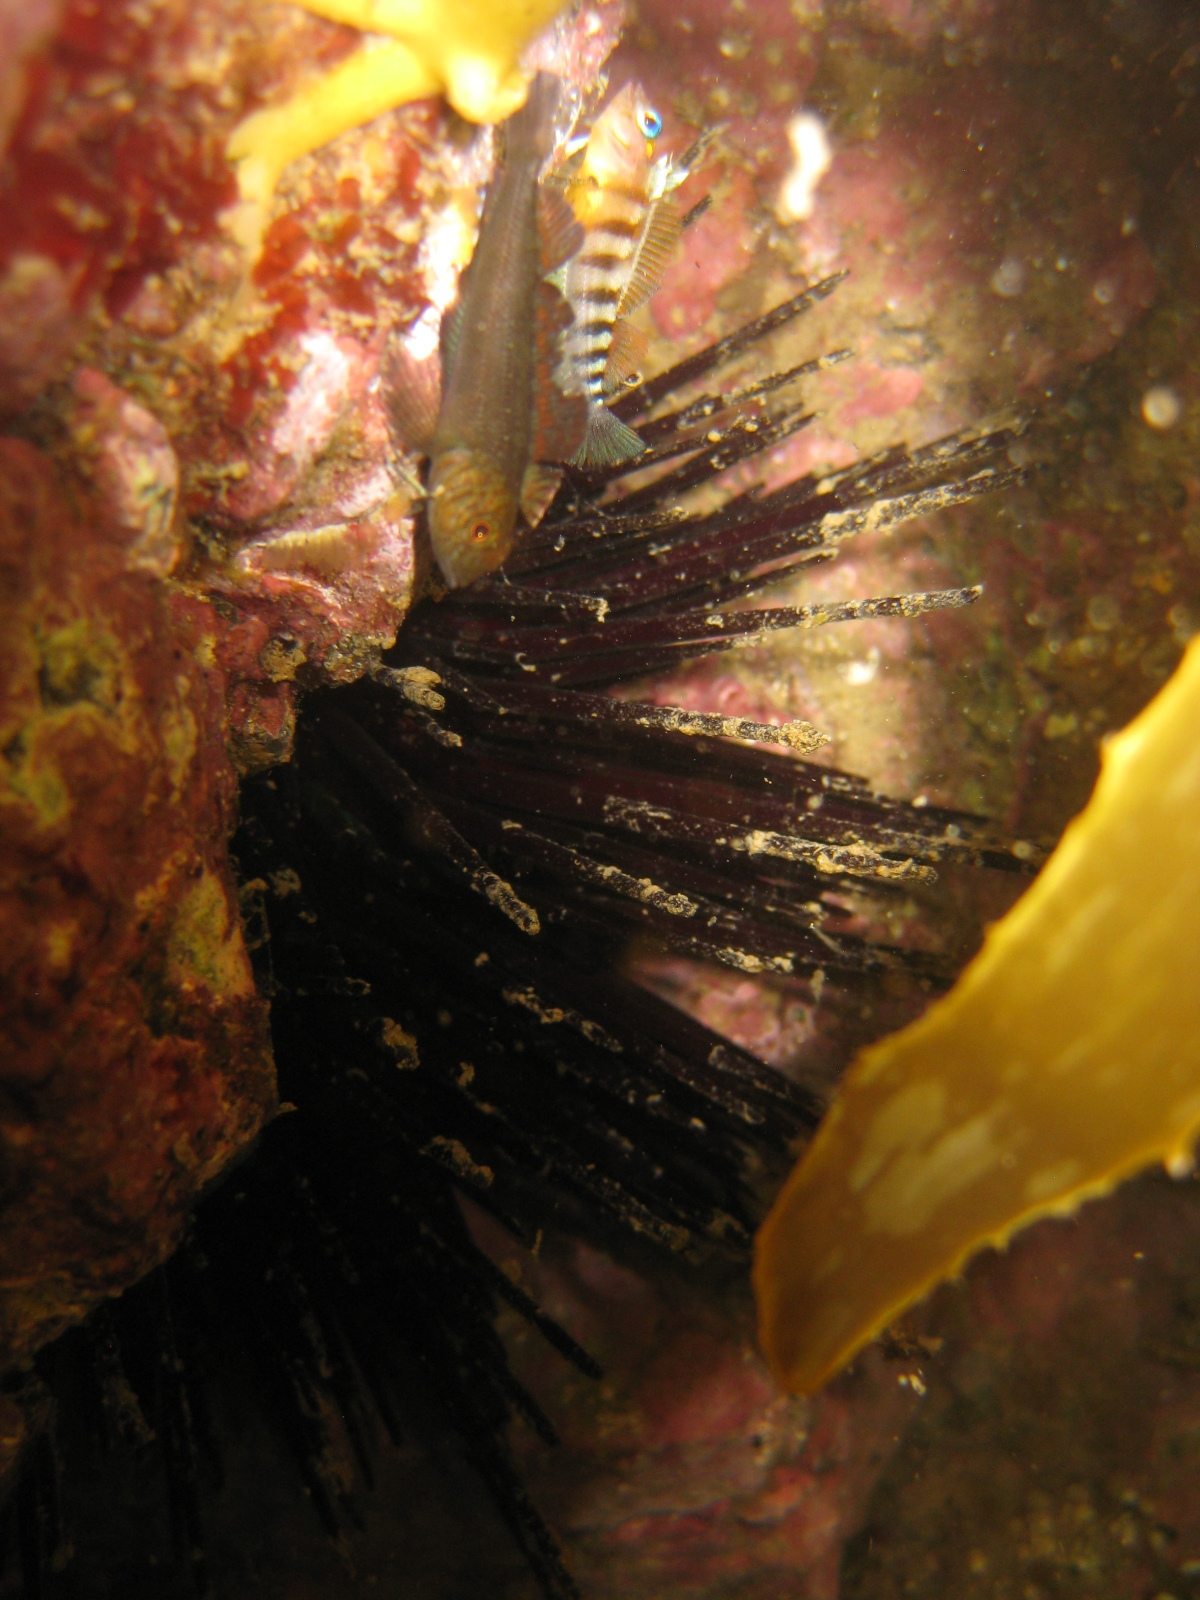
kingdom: Animalia
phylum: Chordata
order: Perciformes
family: Tripterygiidae
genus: Forsterygion
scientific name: Forsterygion lapillum
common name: Common triplefin
